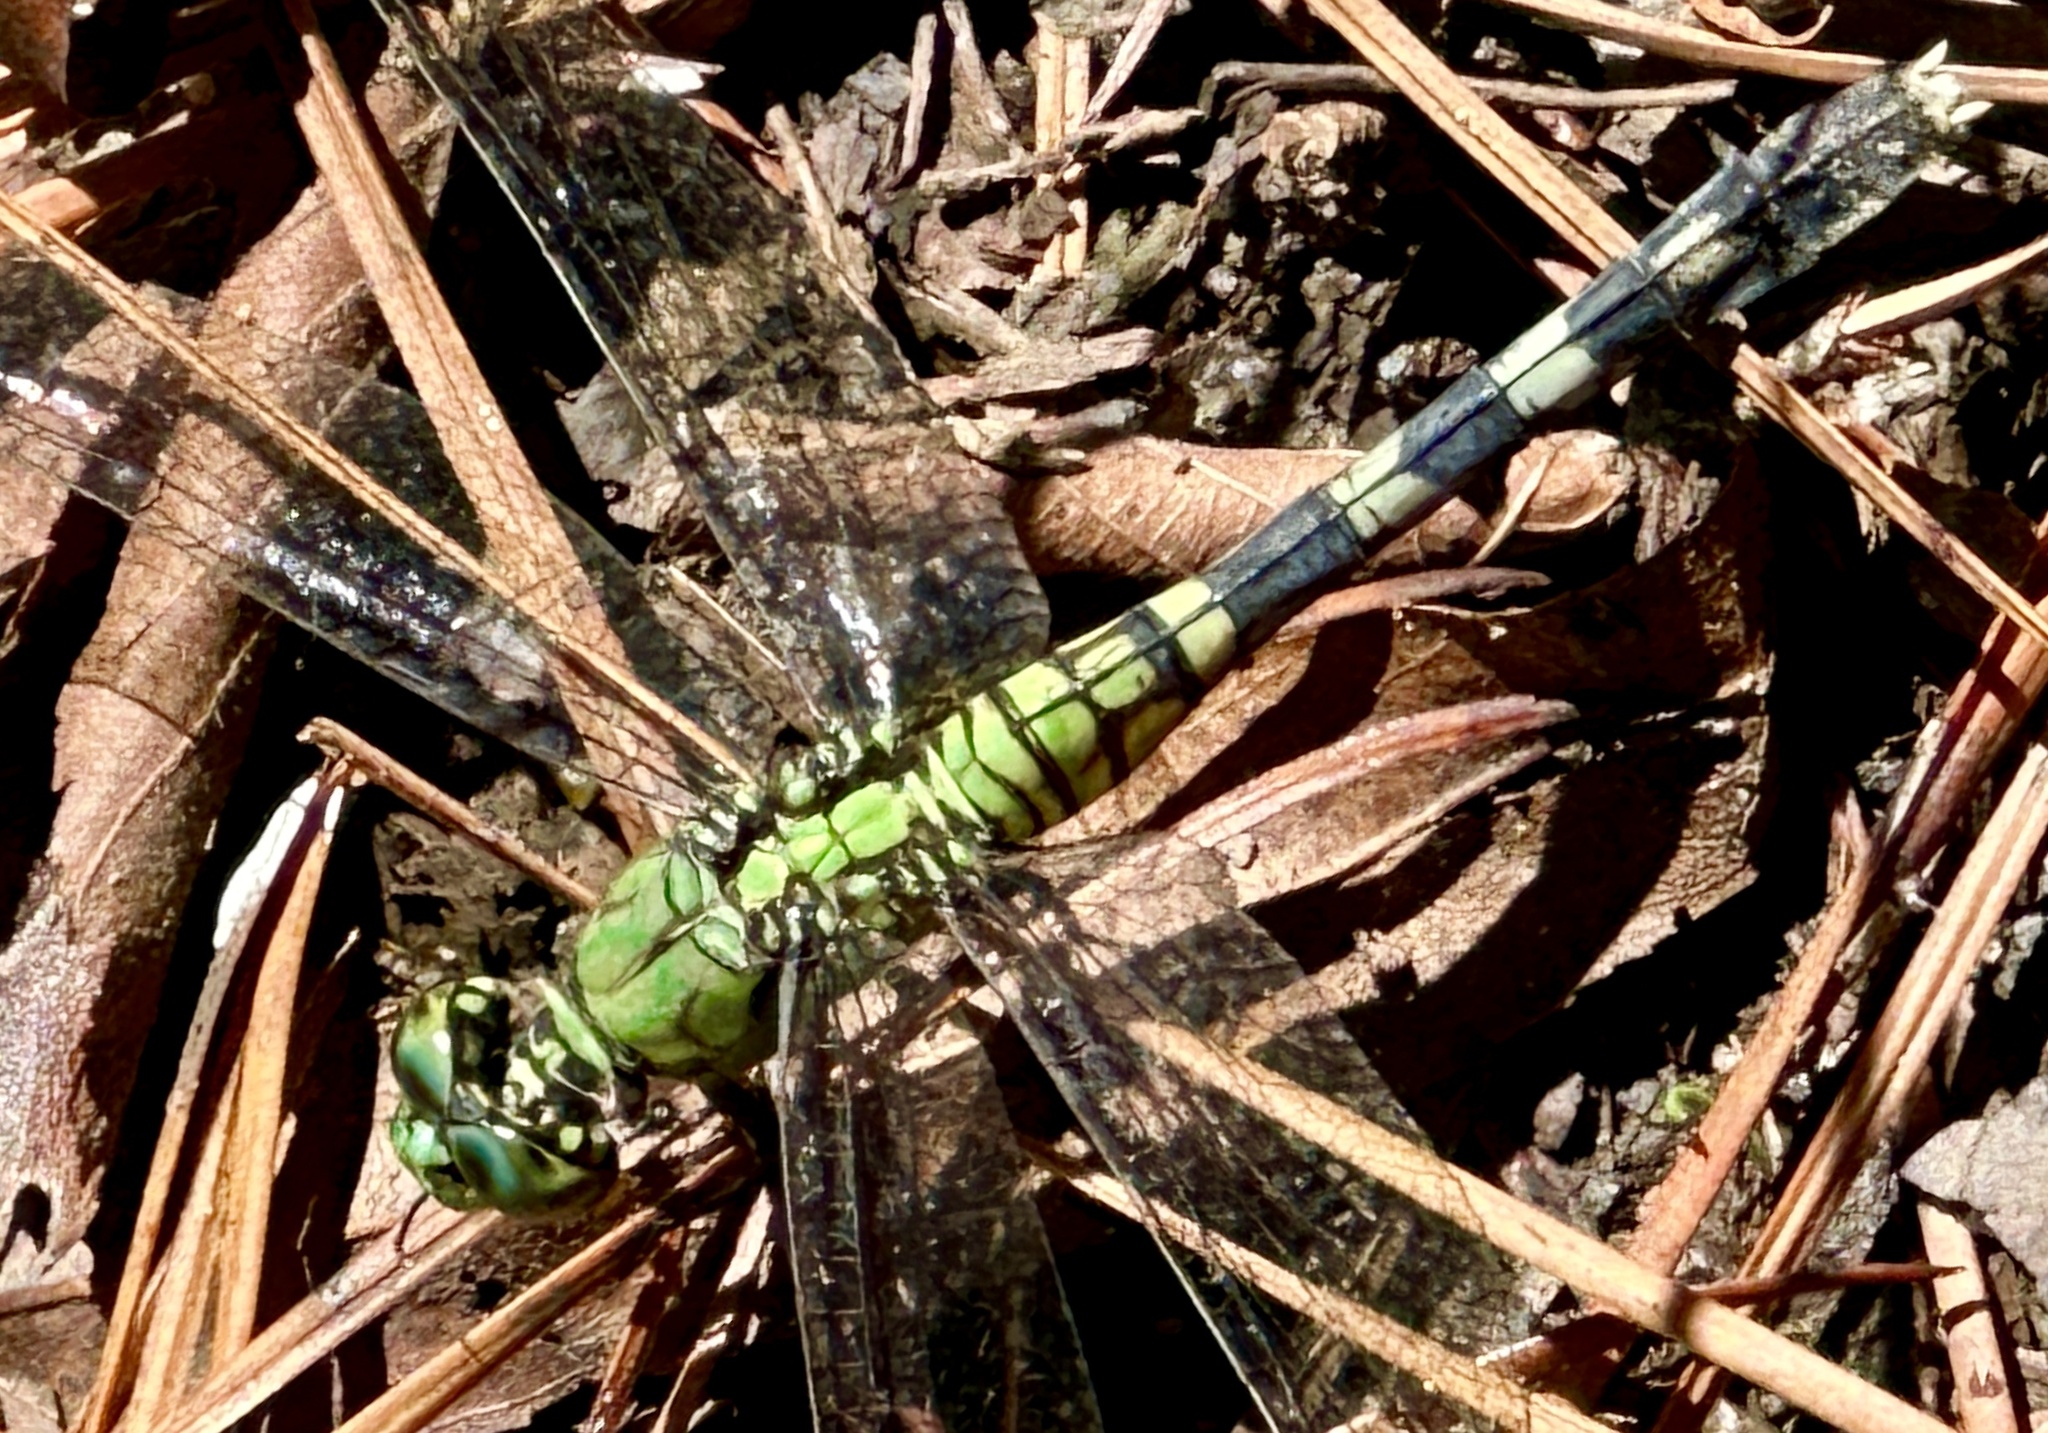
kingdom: Animalia
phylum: Arthropoda
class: Insecta
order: Odonata
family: Libellulidae
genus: Erythemis
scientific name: Erythemis simplicicollis
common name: Eastern pondhawk
